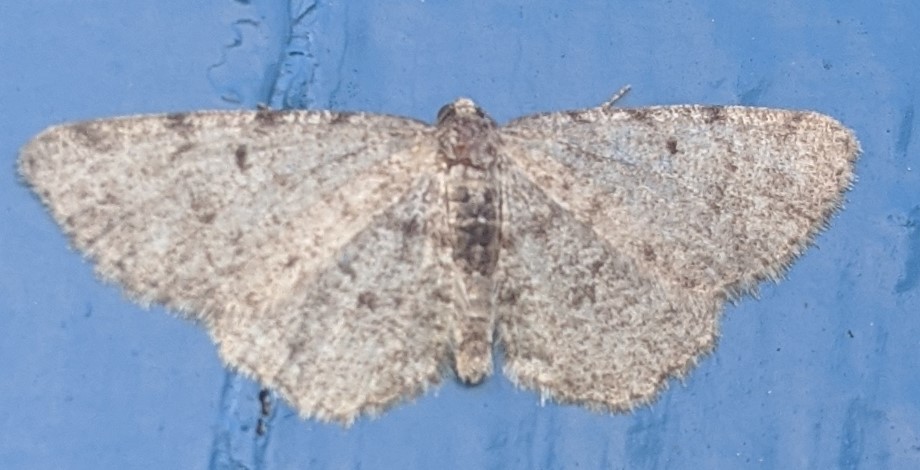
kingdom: Animalia
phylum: Arthropoda
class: Insecta
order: Lepidoptera
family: Geometridae
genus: Aethalura
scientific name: Aethalura intertexta
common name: Four-barred gray
